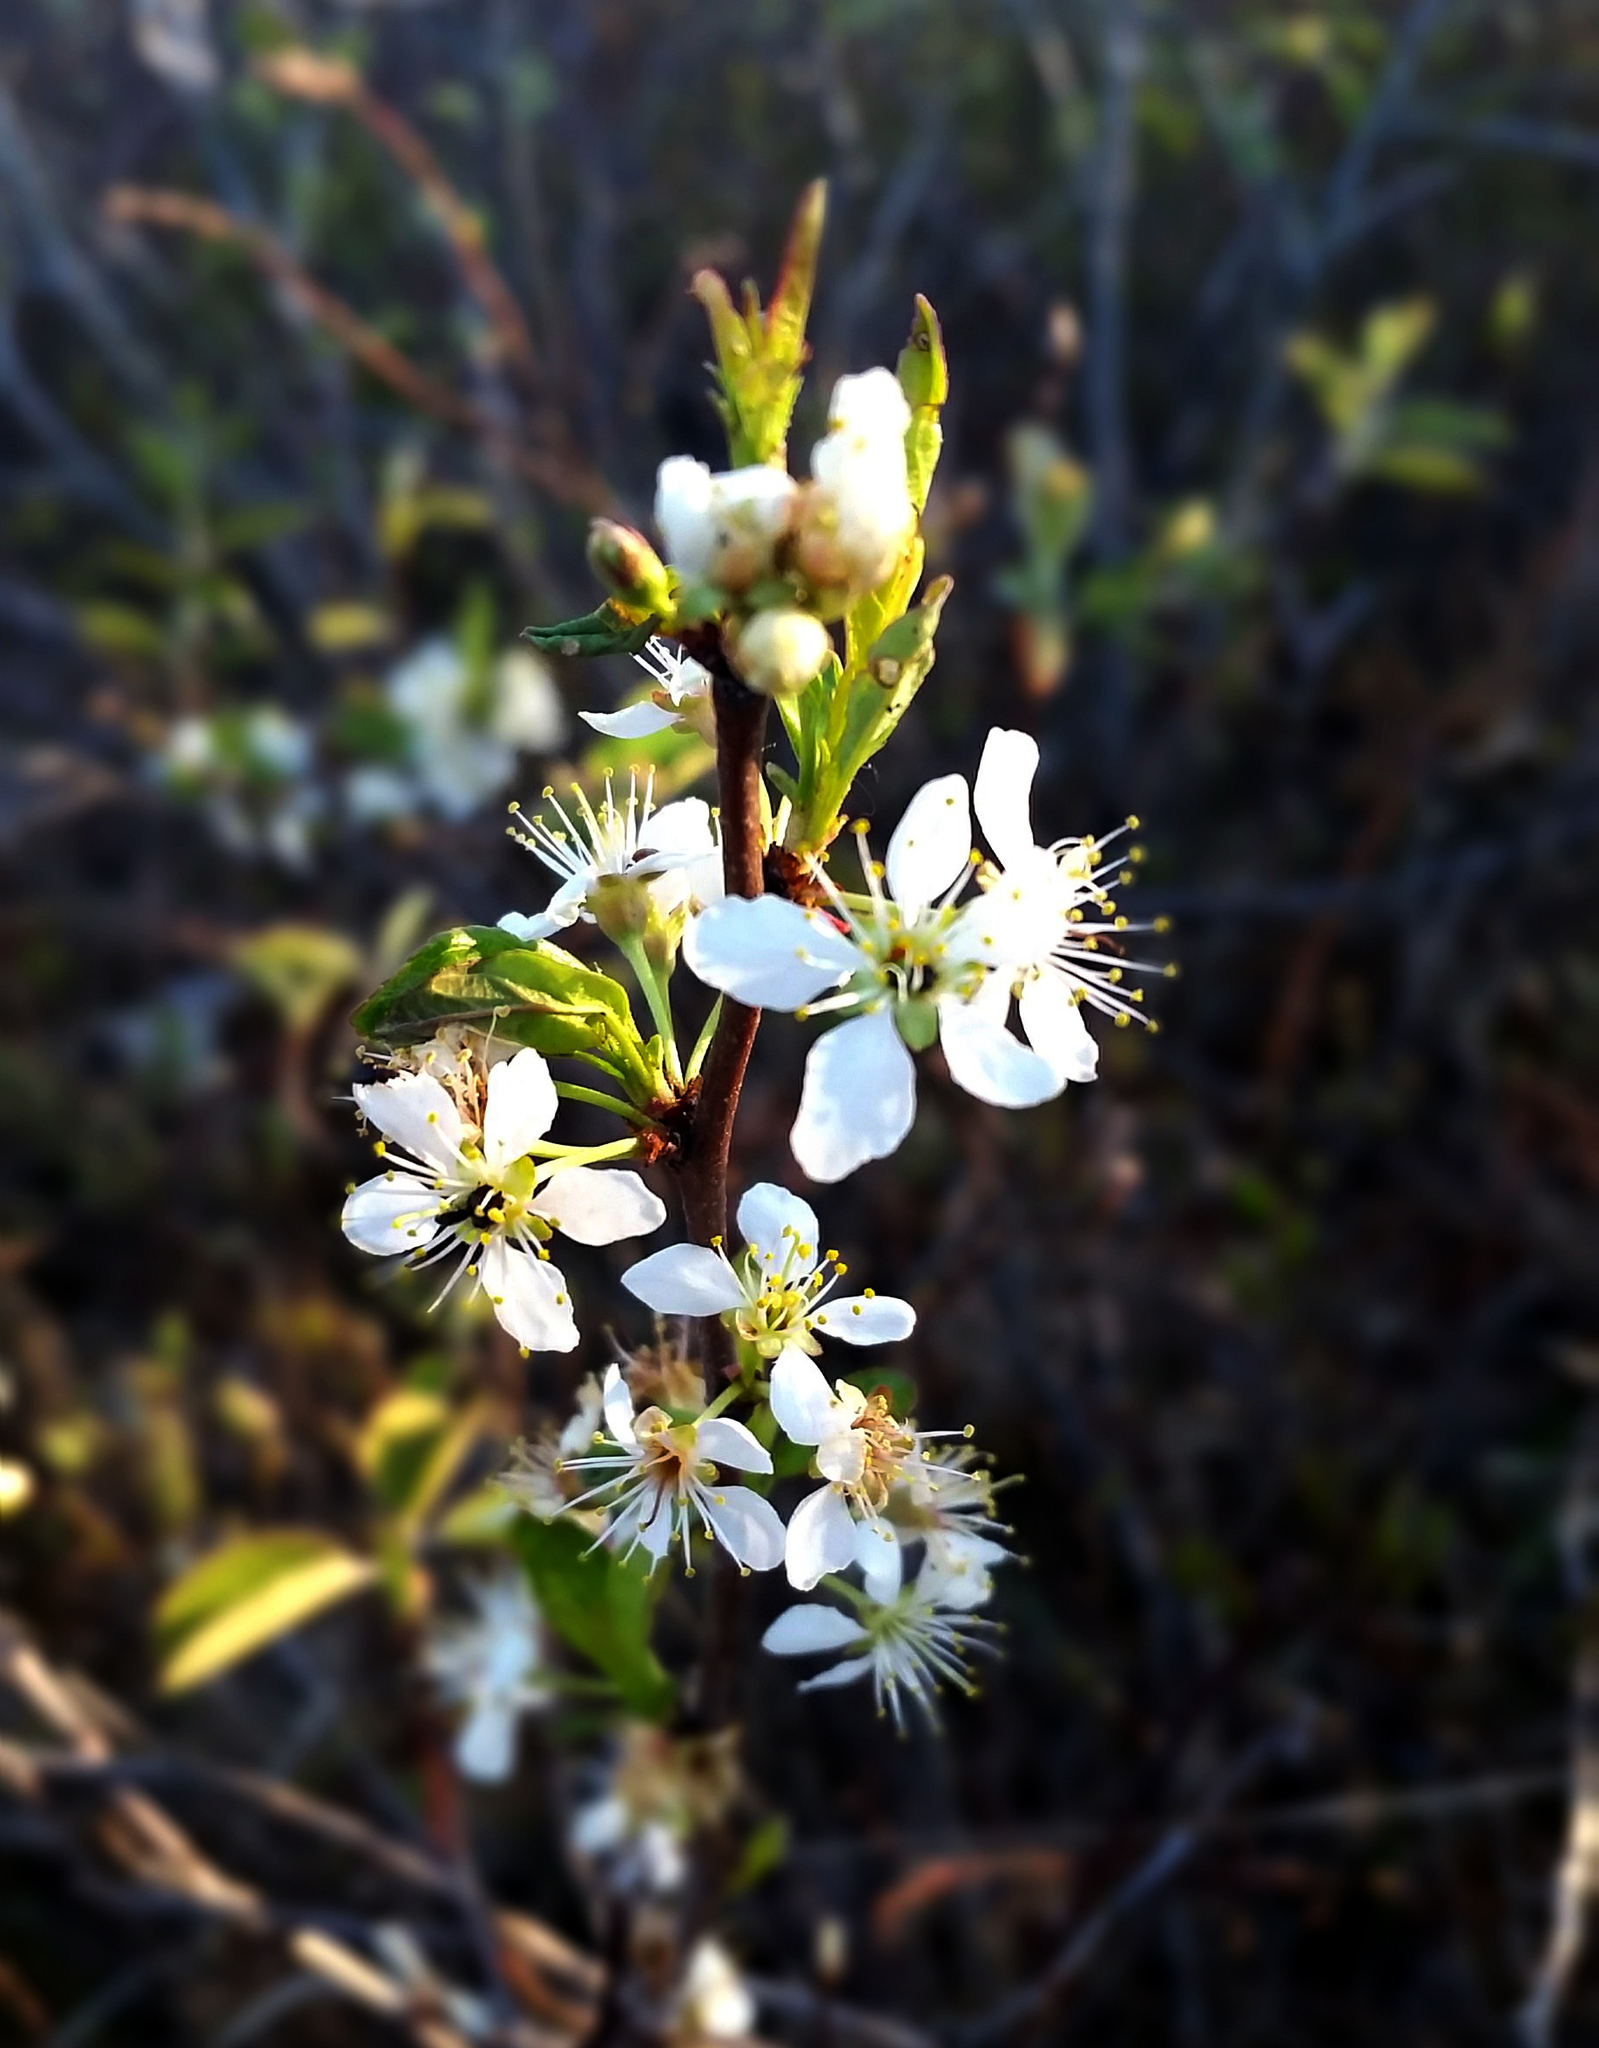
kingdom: Plantae
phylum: Tracheophyta
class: Magnoliopsida
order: Rosales
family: Rosaceae
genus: Prunus
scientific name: Prunus pumila
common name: Dwarf cherry
